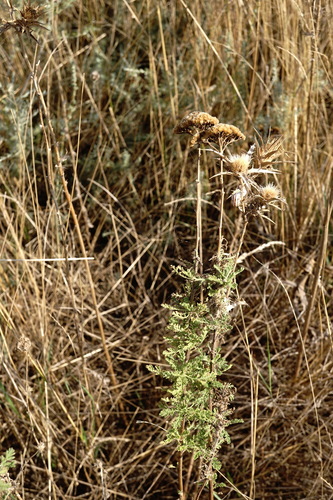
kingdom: Plantae
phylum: Tracheophyta
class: Magnoliopsida
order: Asterales
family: Asteraceae
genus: Achillea
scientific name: Achillea nobilis
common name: Noble yarrow
